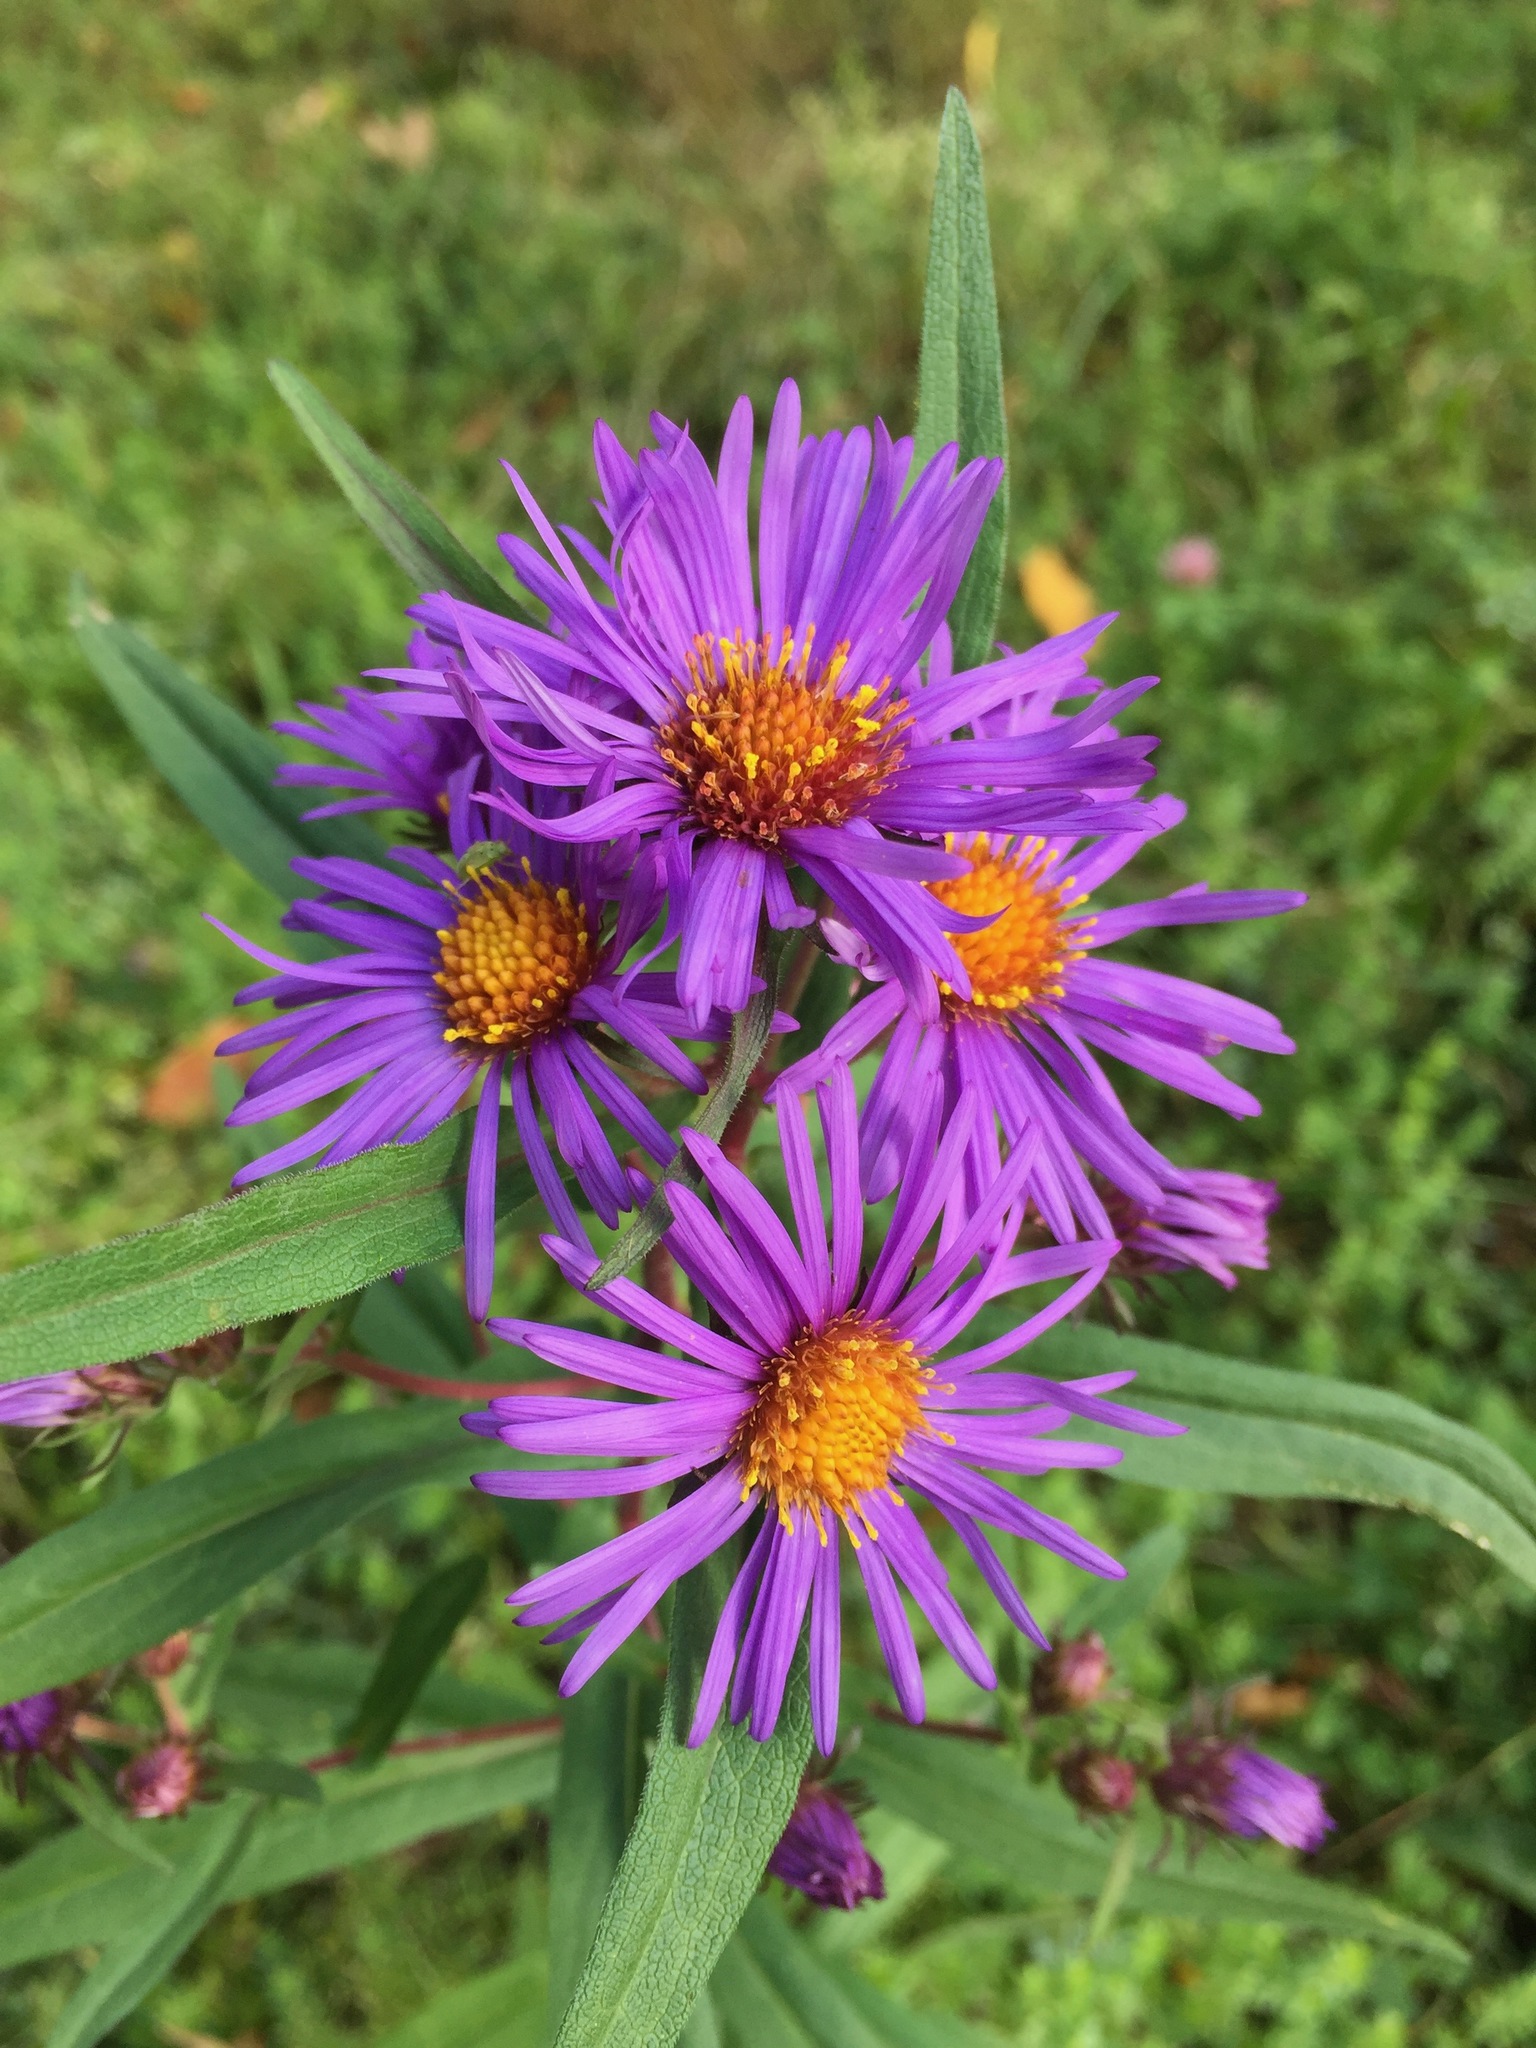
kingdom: Plantae
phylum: Tracheophyta
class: Magnoliopsida
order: Asterales
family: Asteraceae
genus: Symphyotrichum
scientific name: Symphyotrichum novae-angliae
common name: Michaelmas daisy
